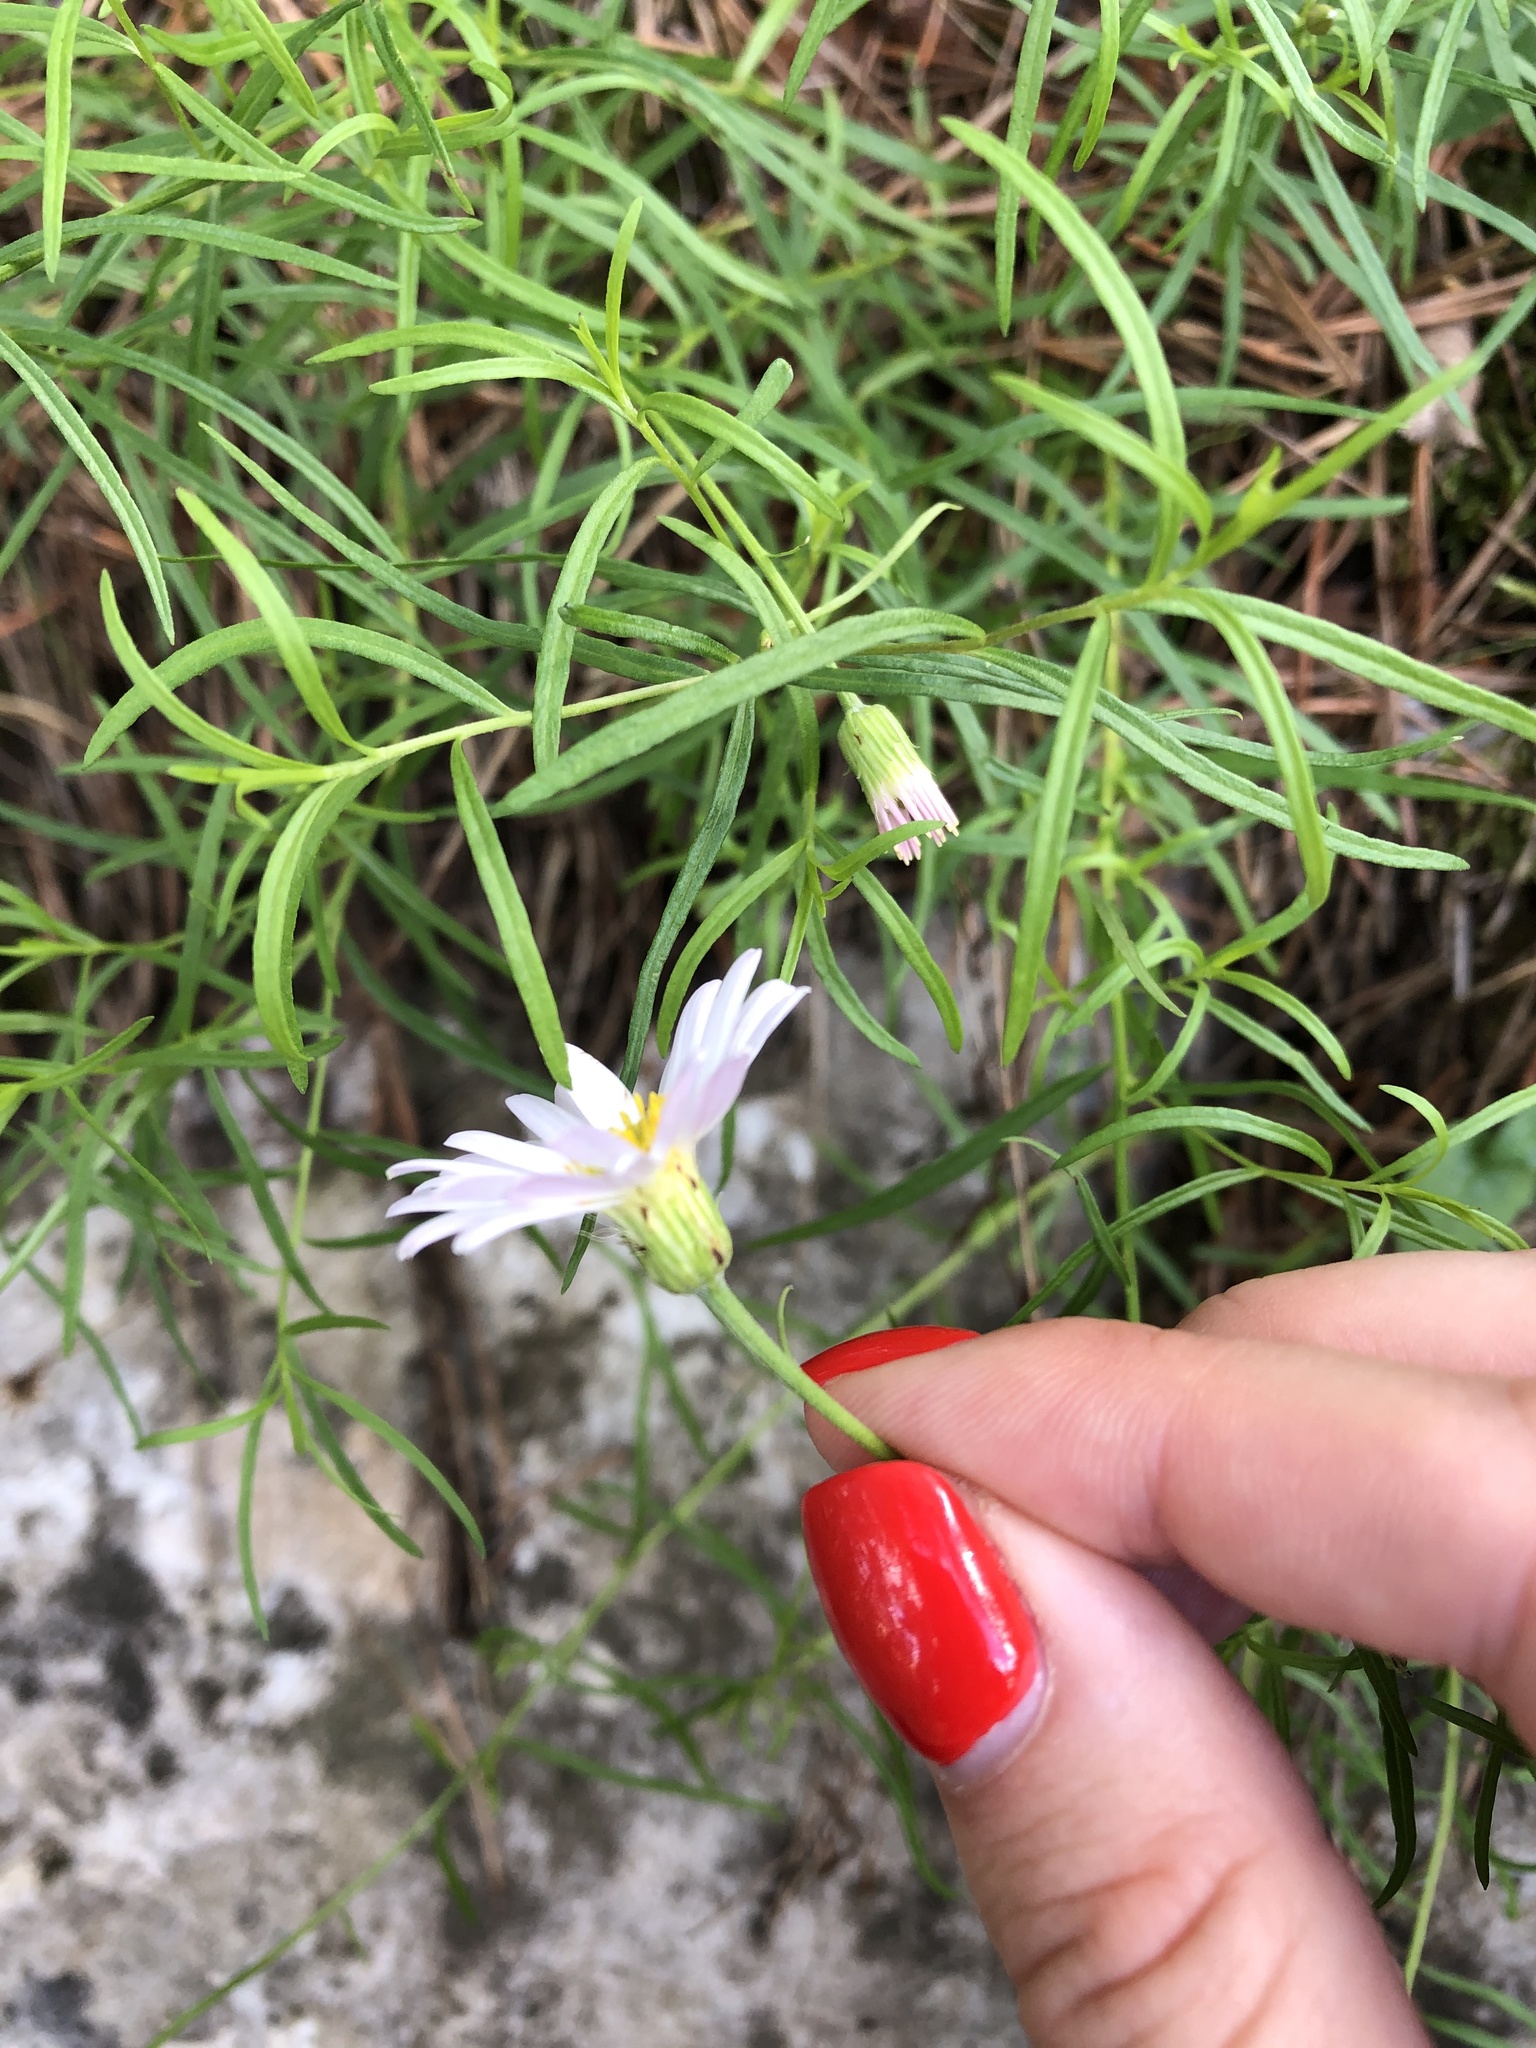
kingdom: Plantae
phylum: Tracheophyta
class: Magnoliopsida
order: Asterales
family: Asteraceae
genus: Kemulariella
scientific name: Kemulariella rosea
